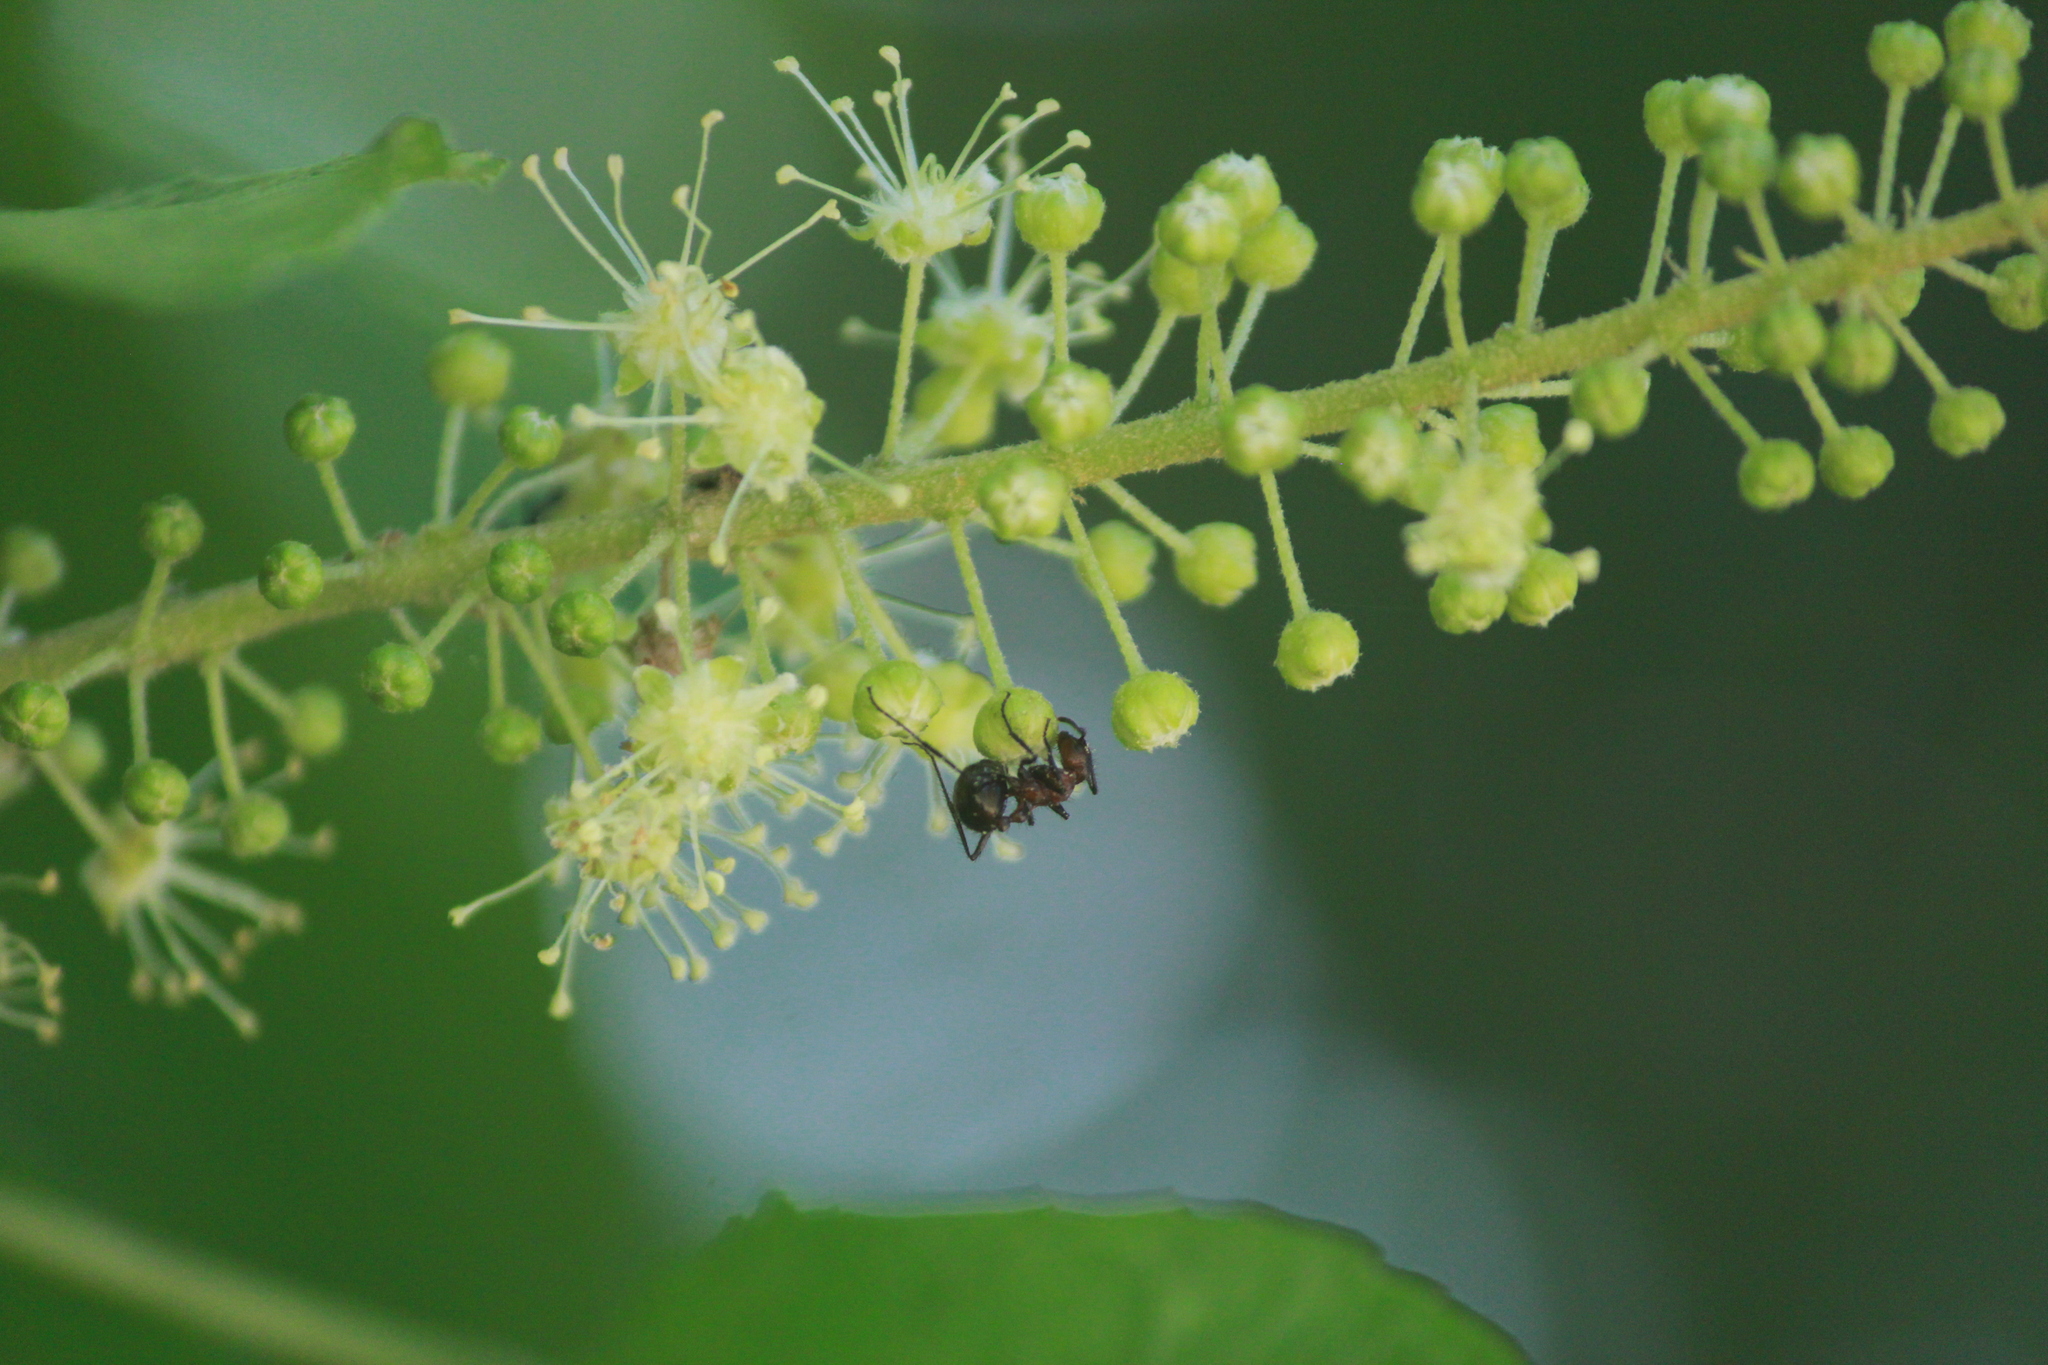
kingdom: Animalia
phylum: Arthropoda
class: Insecta
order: Hymenoptera
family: Formicidae
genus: Myrmicaria
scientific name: Myrmicaria natalensis
